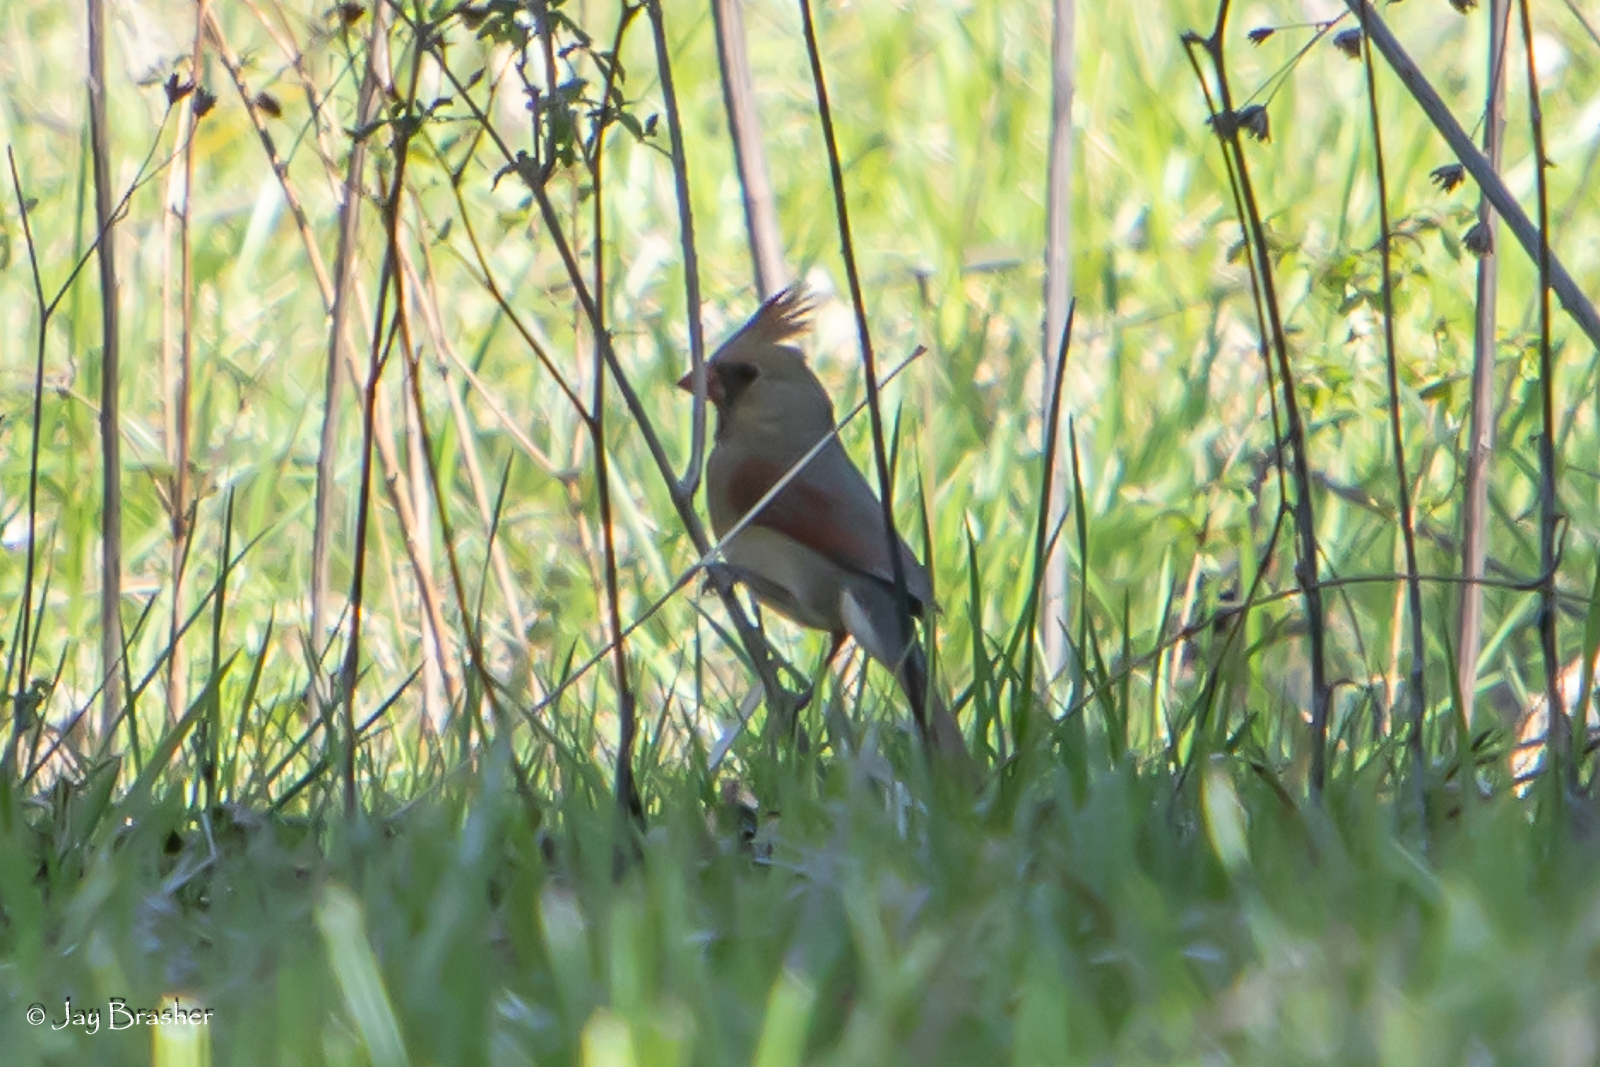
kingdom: Animalia
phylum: Chordata
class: Aves
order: Passeriformes
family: Cardinalidae
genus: Cardinalis
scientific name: Cardinalis cardinalis
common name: Northern cardinal
